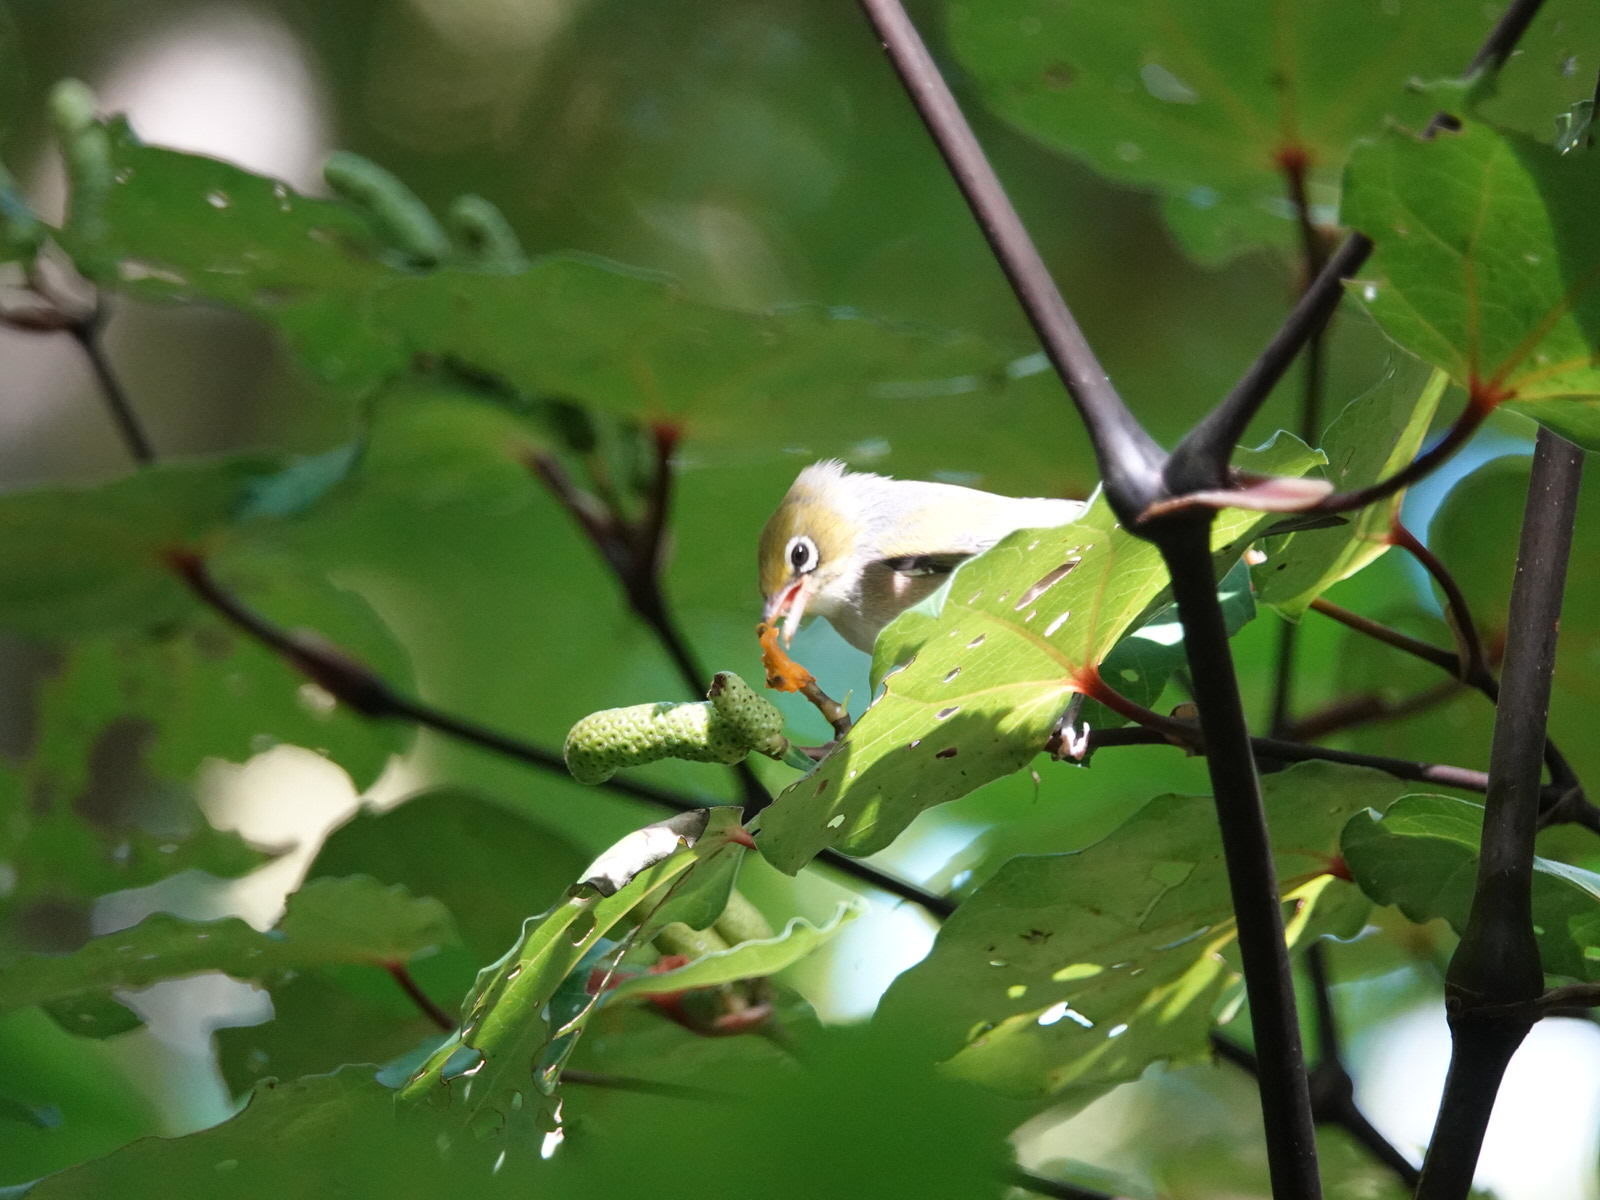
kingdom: Animalia
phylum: Chordata
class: Aves
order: Passeriformes
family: Zosteropidae
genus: Zosterops
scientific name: Zosterops lateralis
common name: Silvereye
